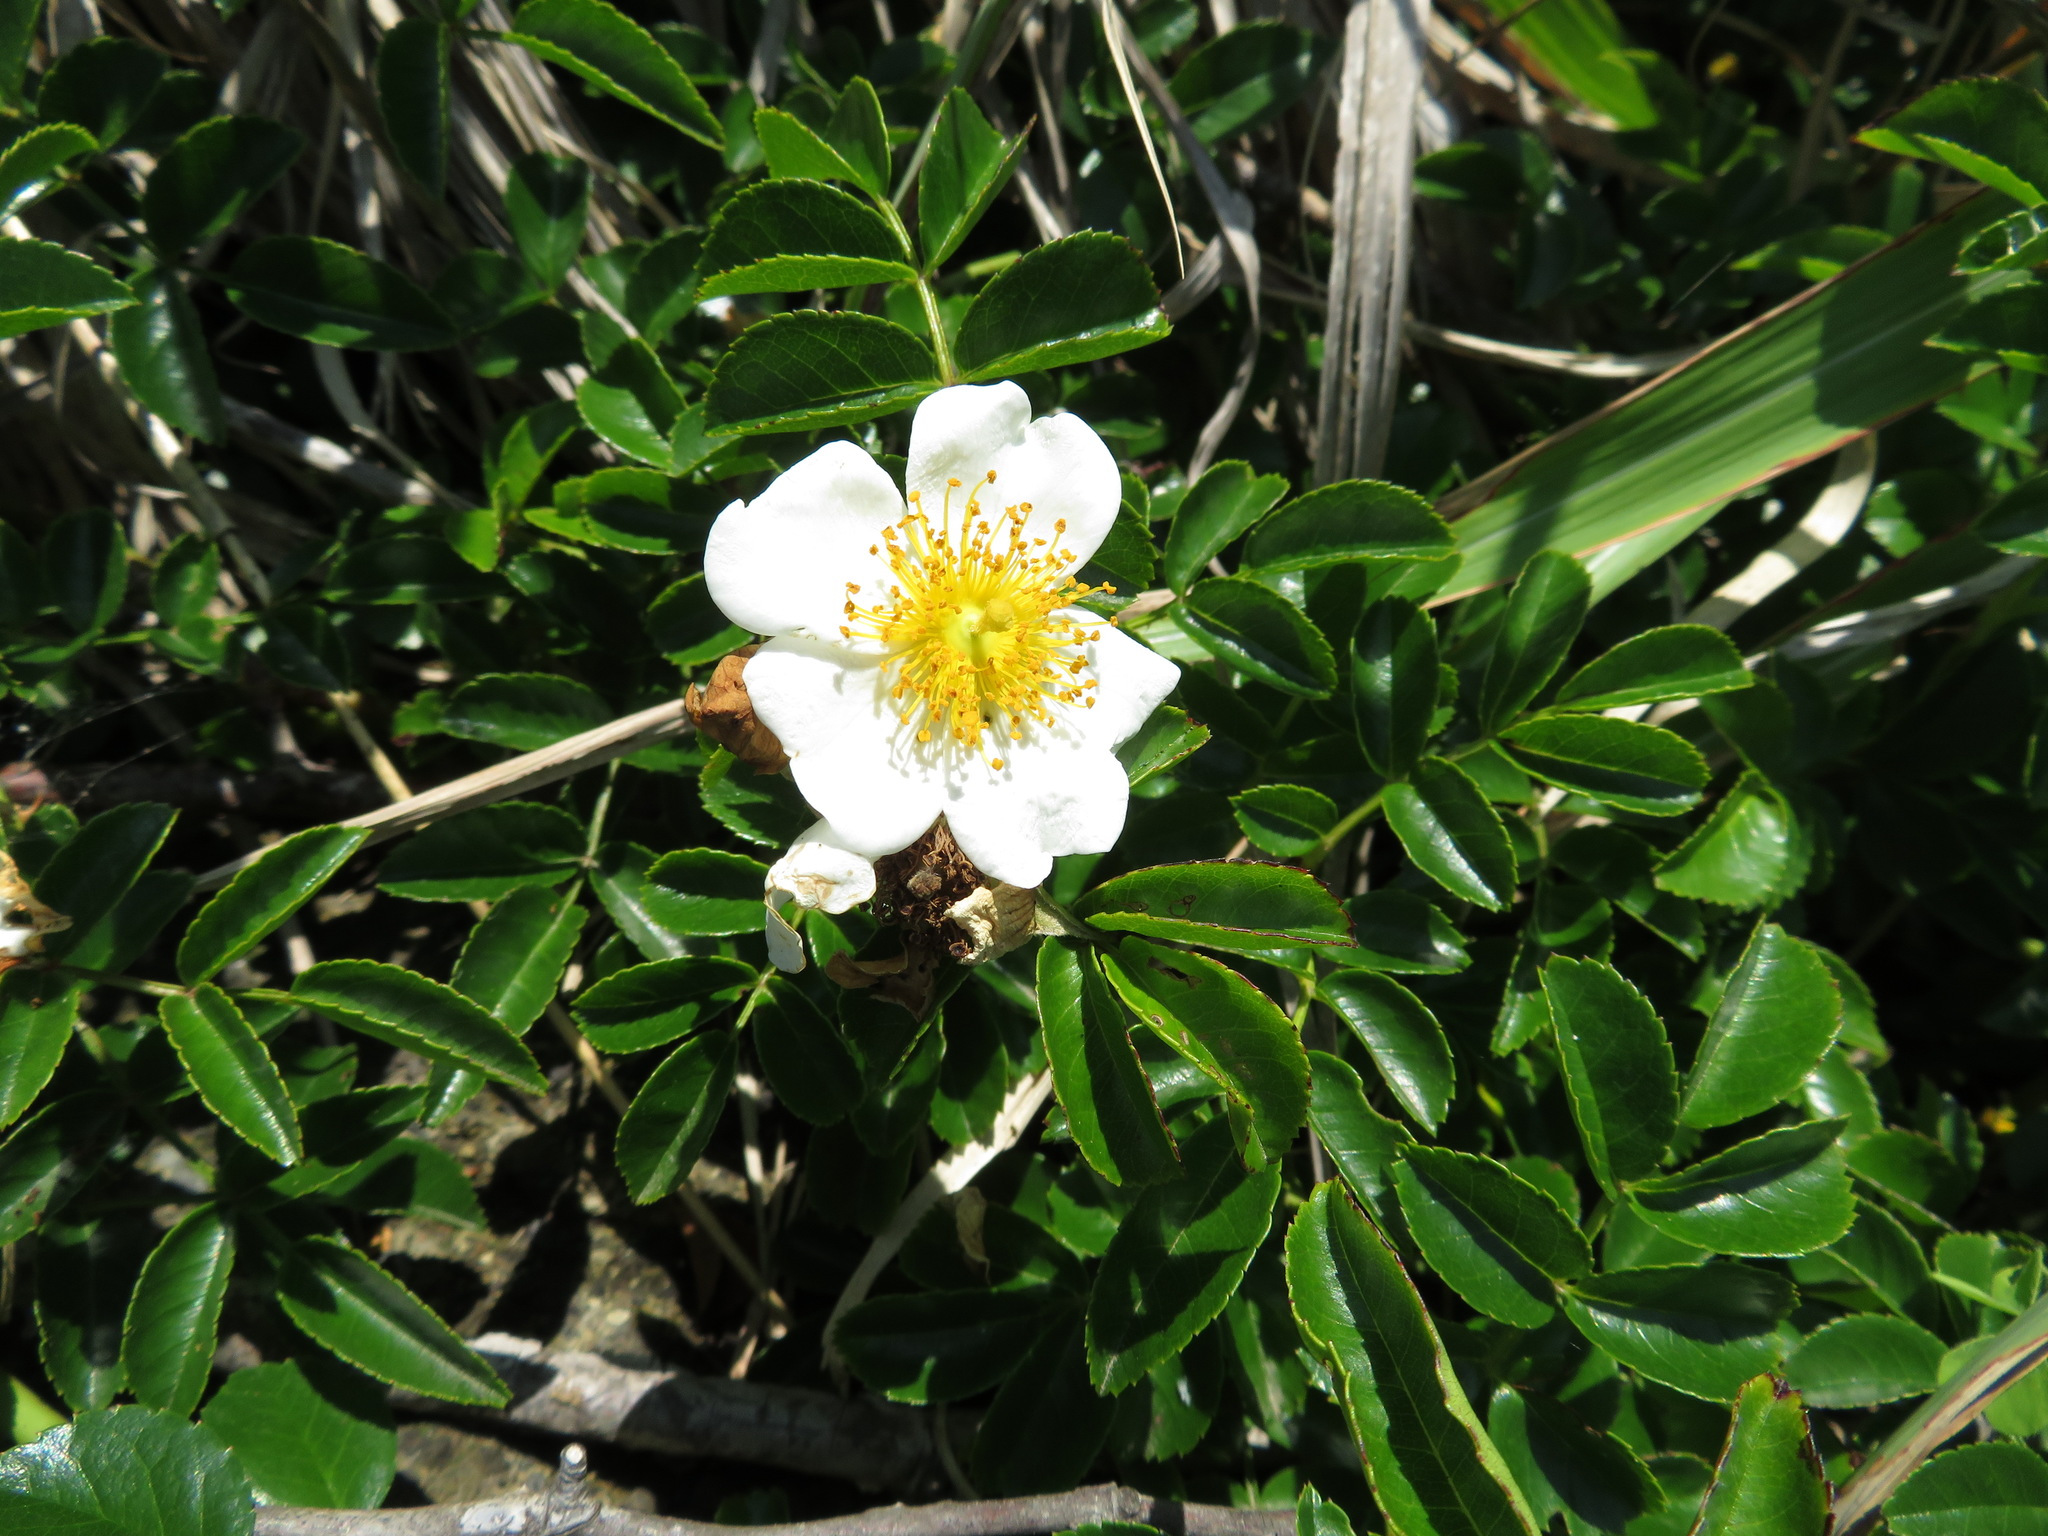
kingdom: Plantae
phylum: Tracheophyta
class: Magnoliopsida
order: Rosales
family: Rosaceae
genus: Rosa
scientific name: Rosa lucieae
